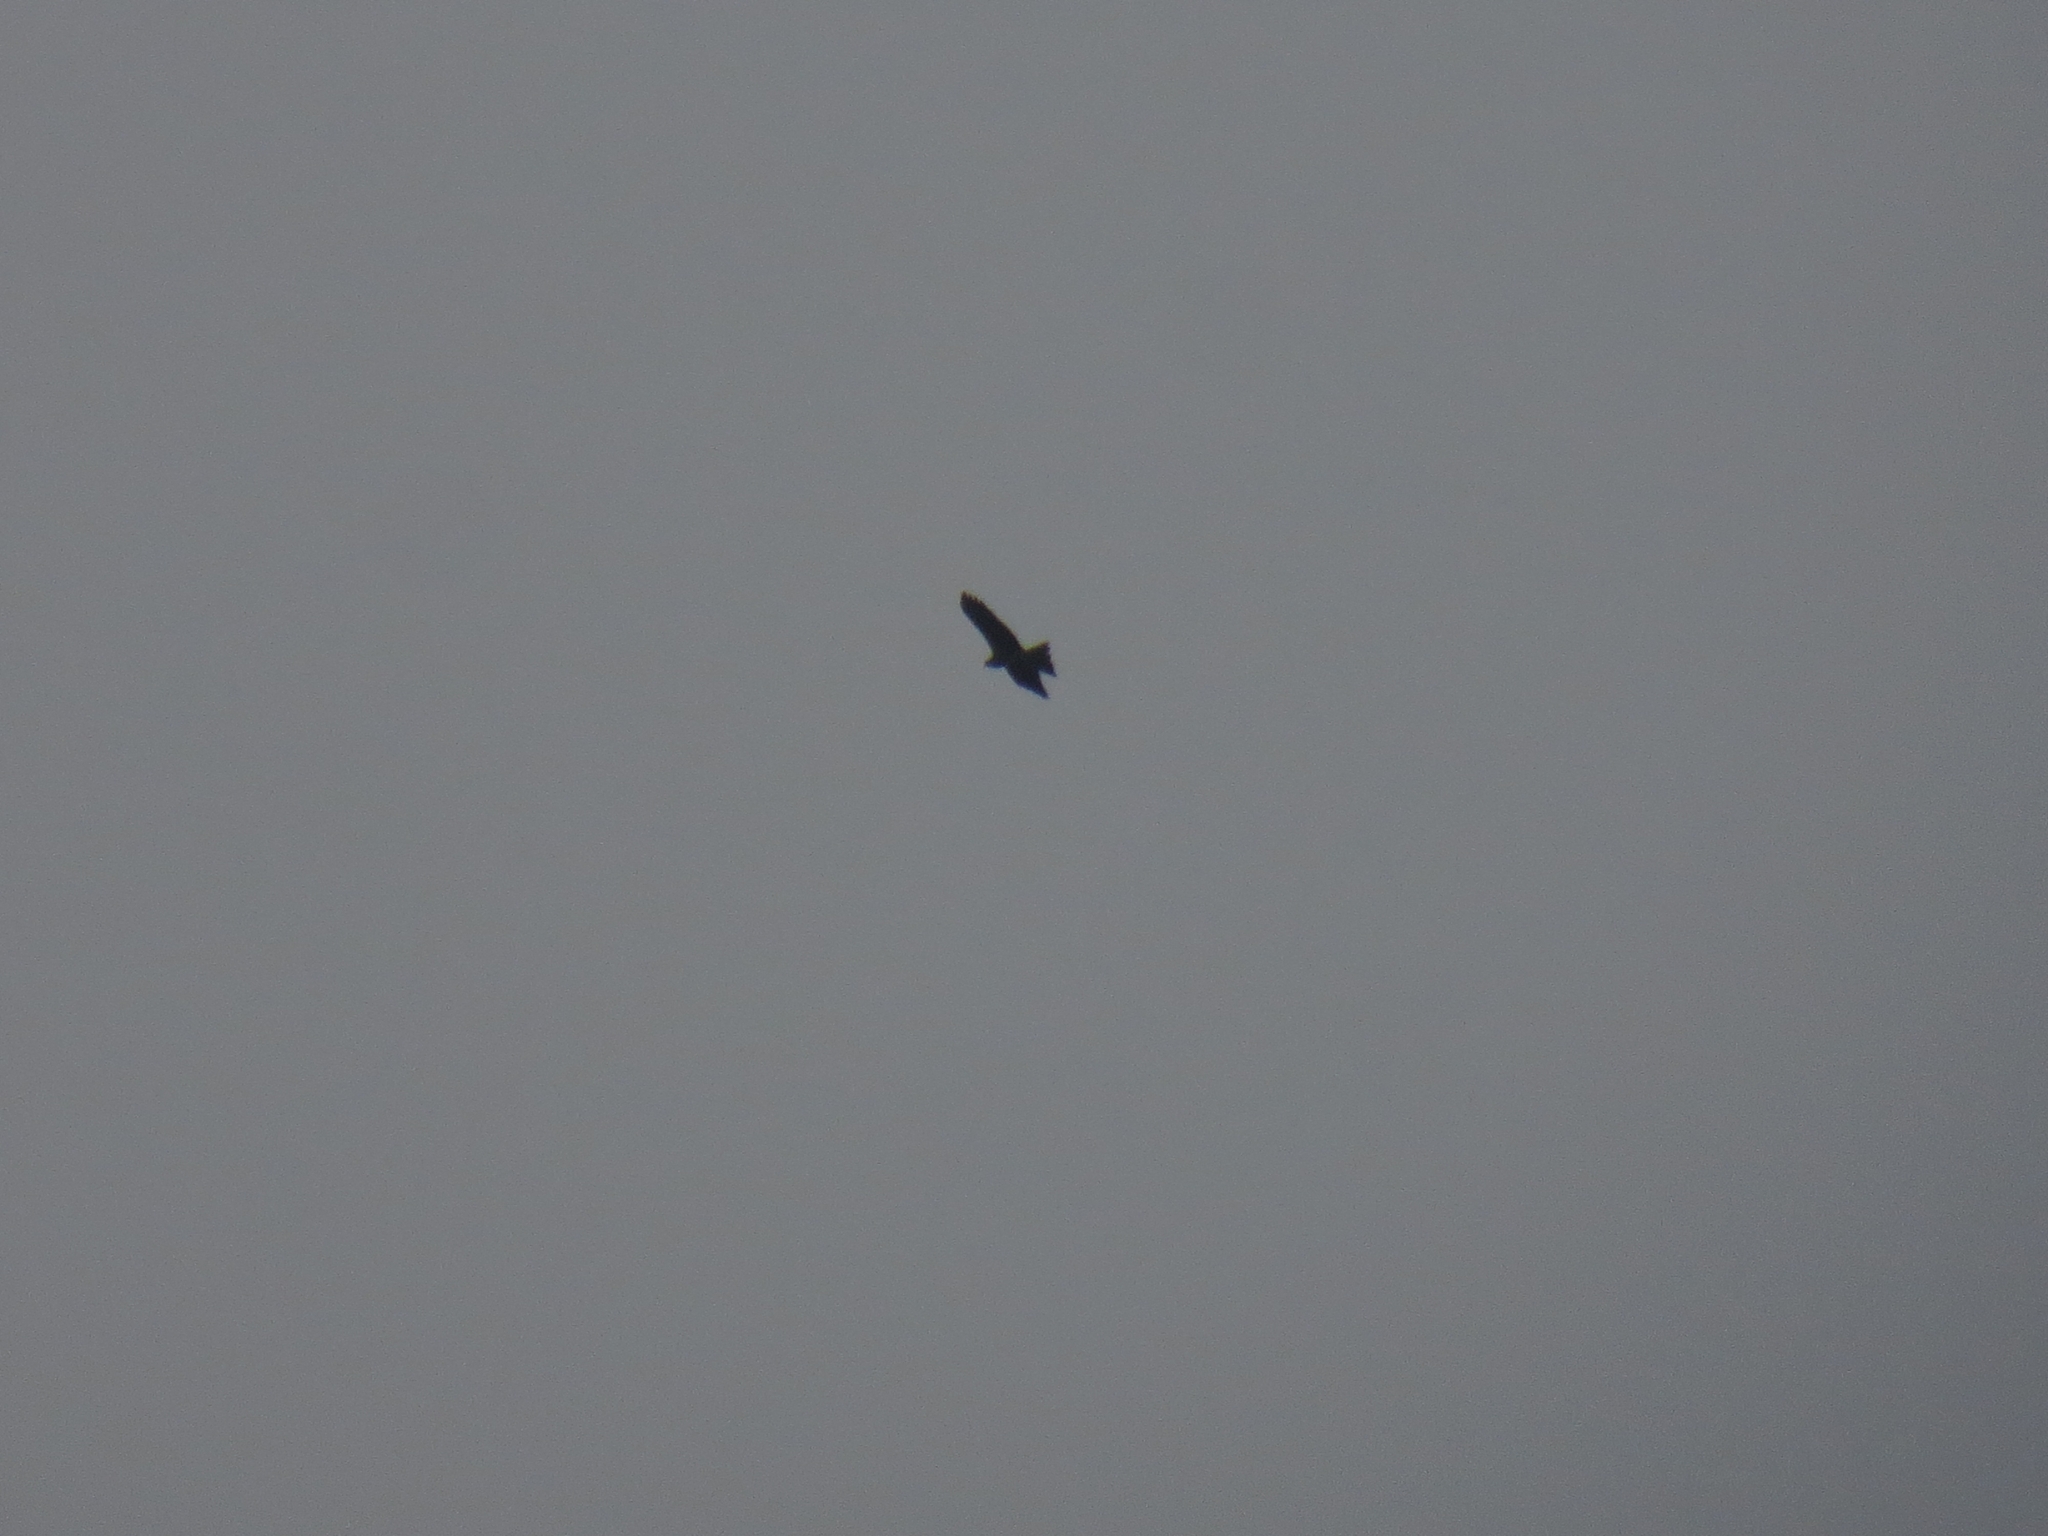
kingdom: Animalia
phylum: Chordata
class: Aves
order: Accipitriformes
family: Accipitridae
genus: Milvus
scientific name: Milvus migrans
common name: Black kite
